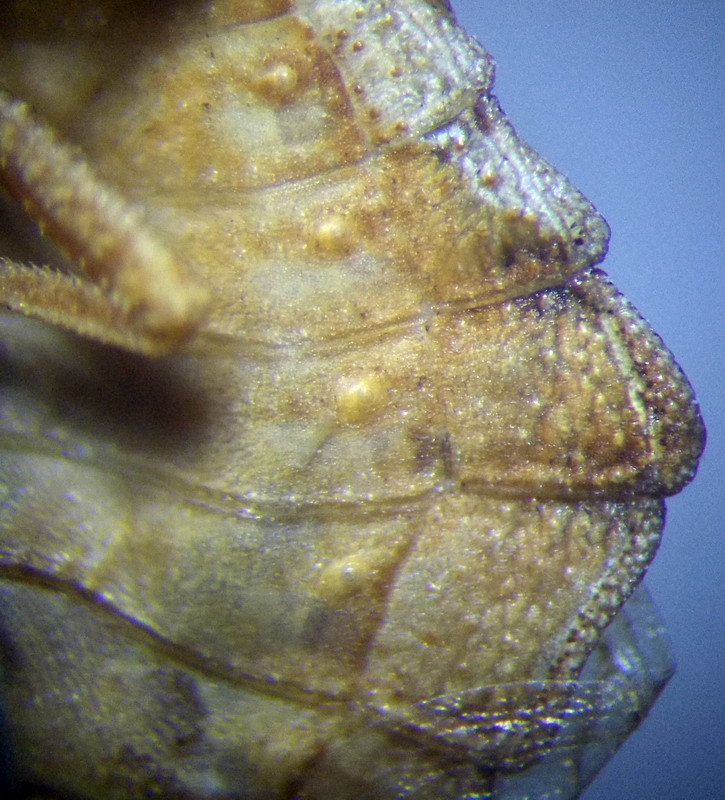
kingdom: Animalia
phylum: Arthropoda
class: Insecta
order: Hemiptera
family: Reduviidae
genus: Phymata
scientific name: Phymata crassipes
